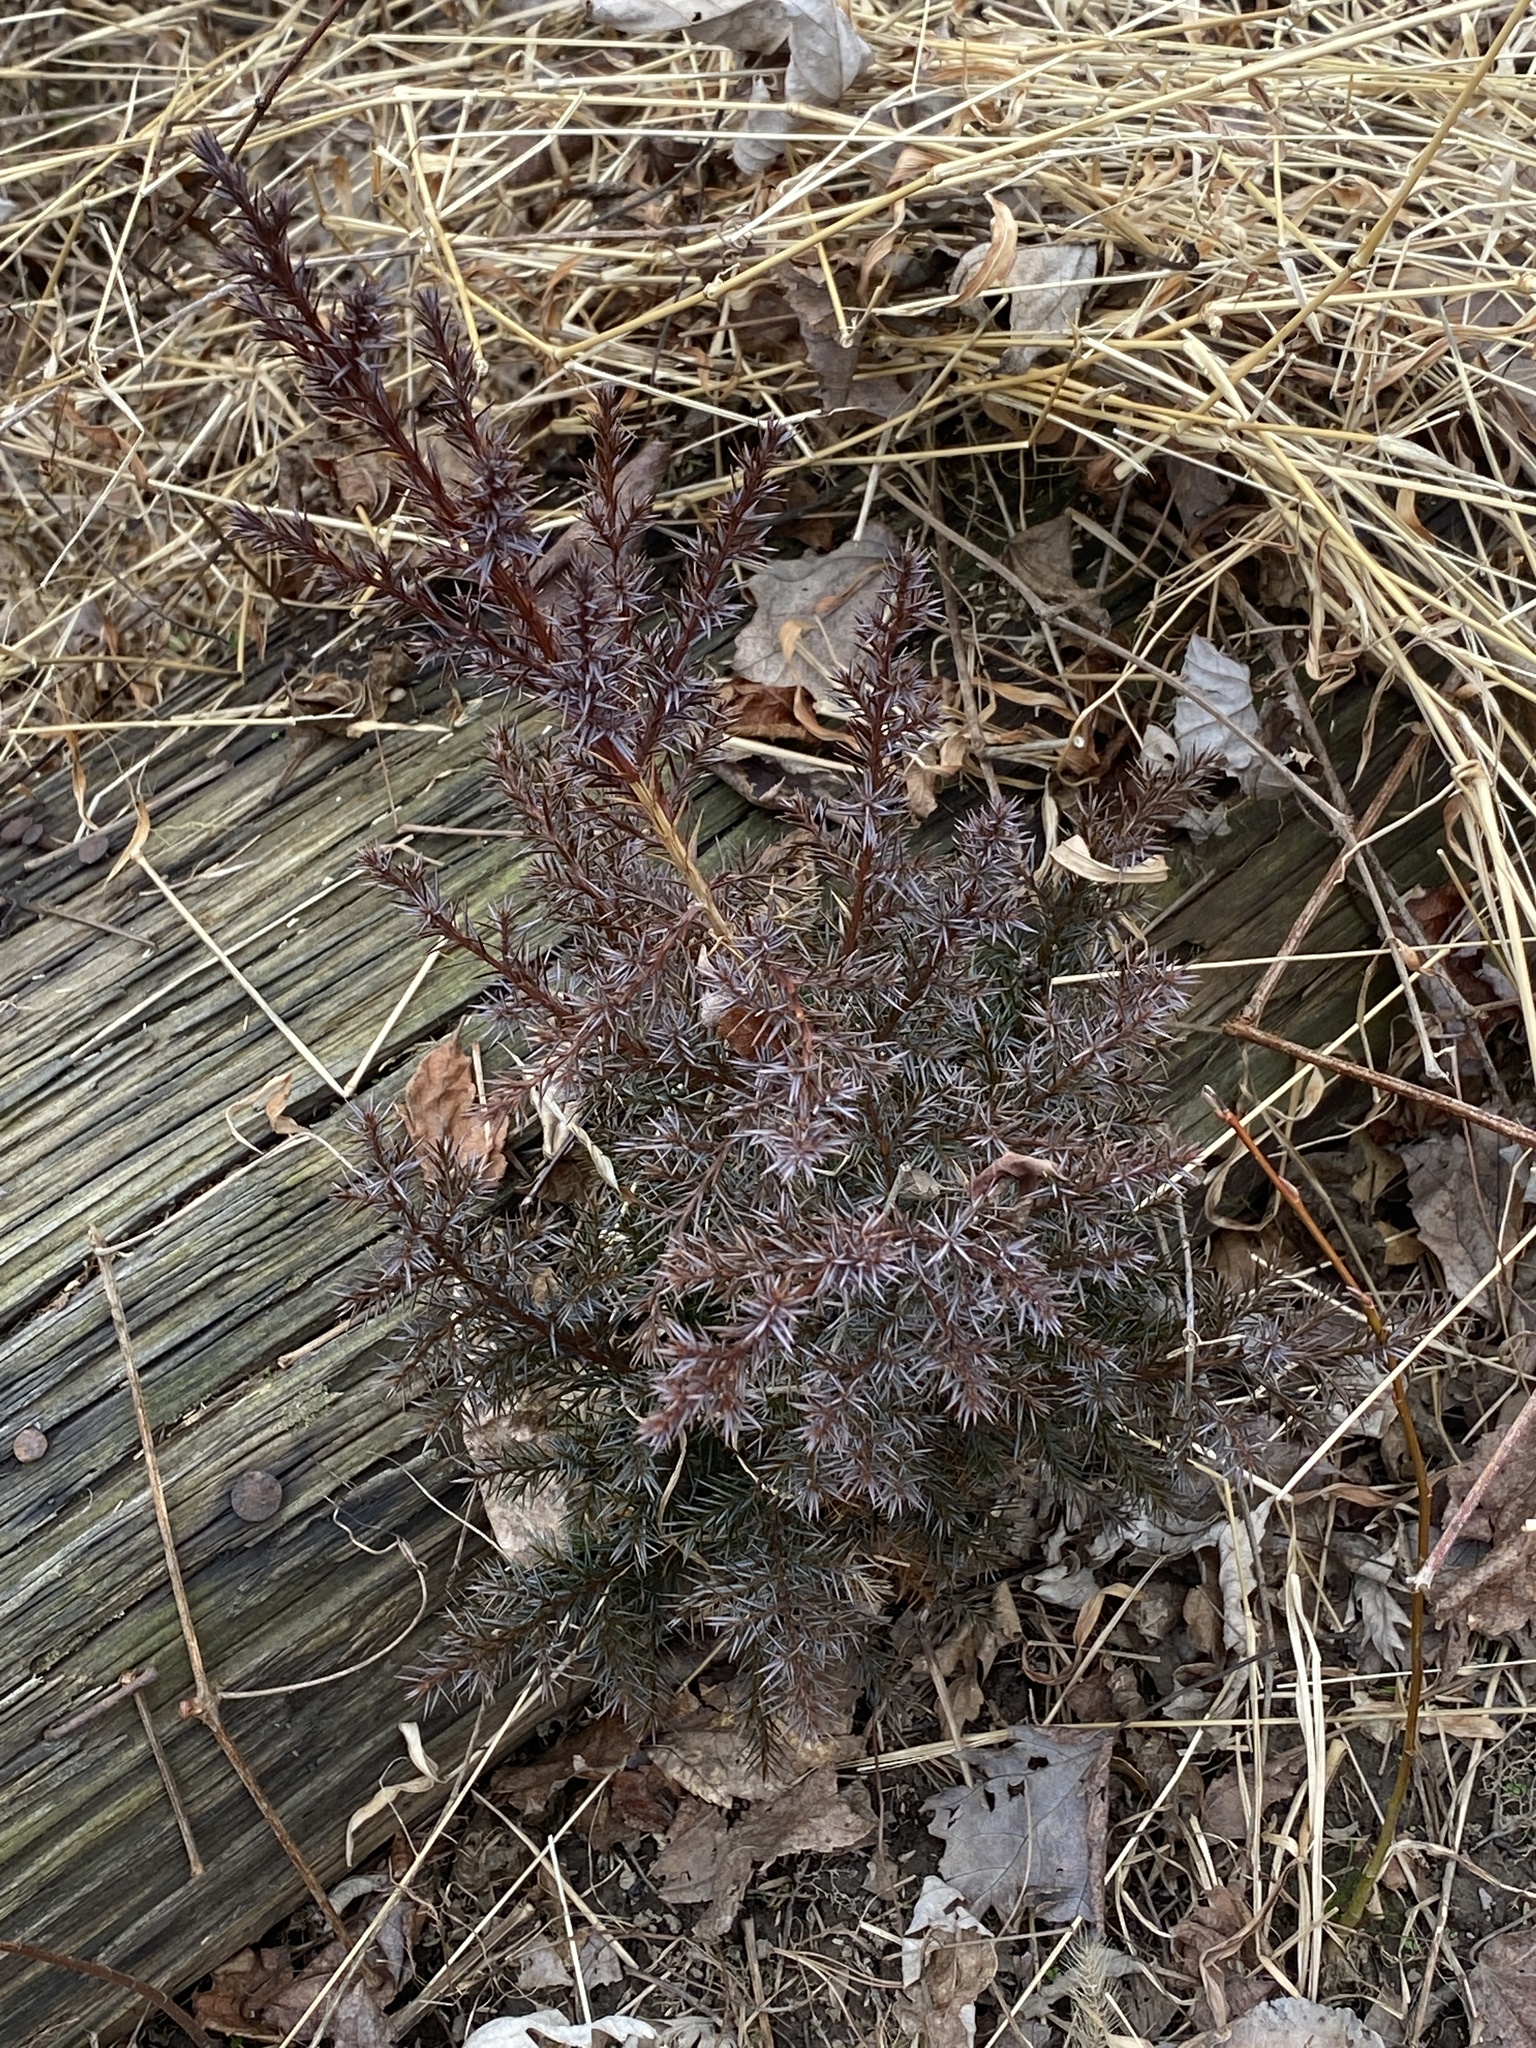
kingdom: Plantae
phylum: Tracheophyta
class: Pinopsida
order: Pinales
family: Cupressaceae
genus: Juniperus
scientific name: Juniperus virginiana
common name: Red juniper
